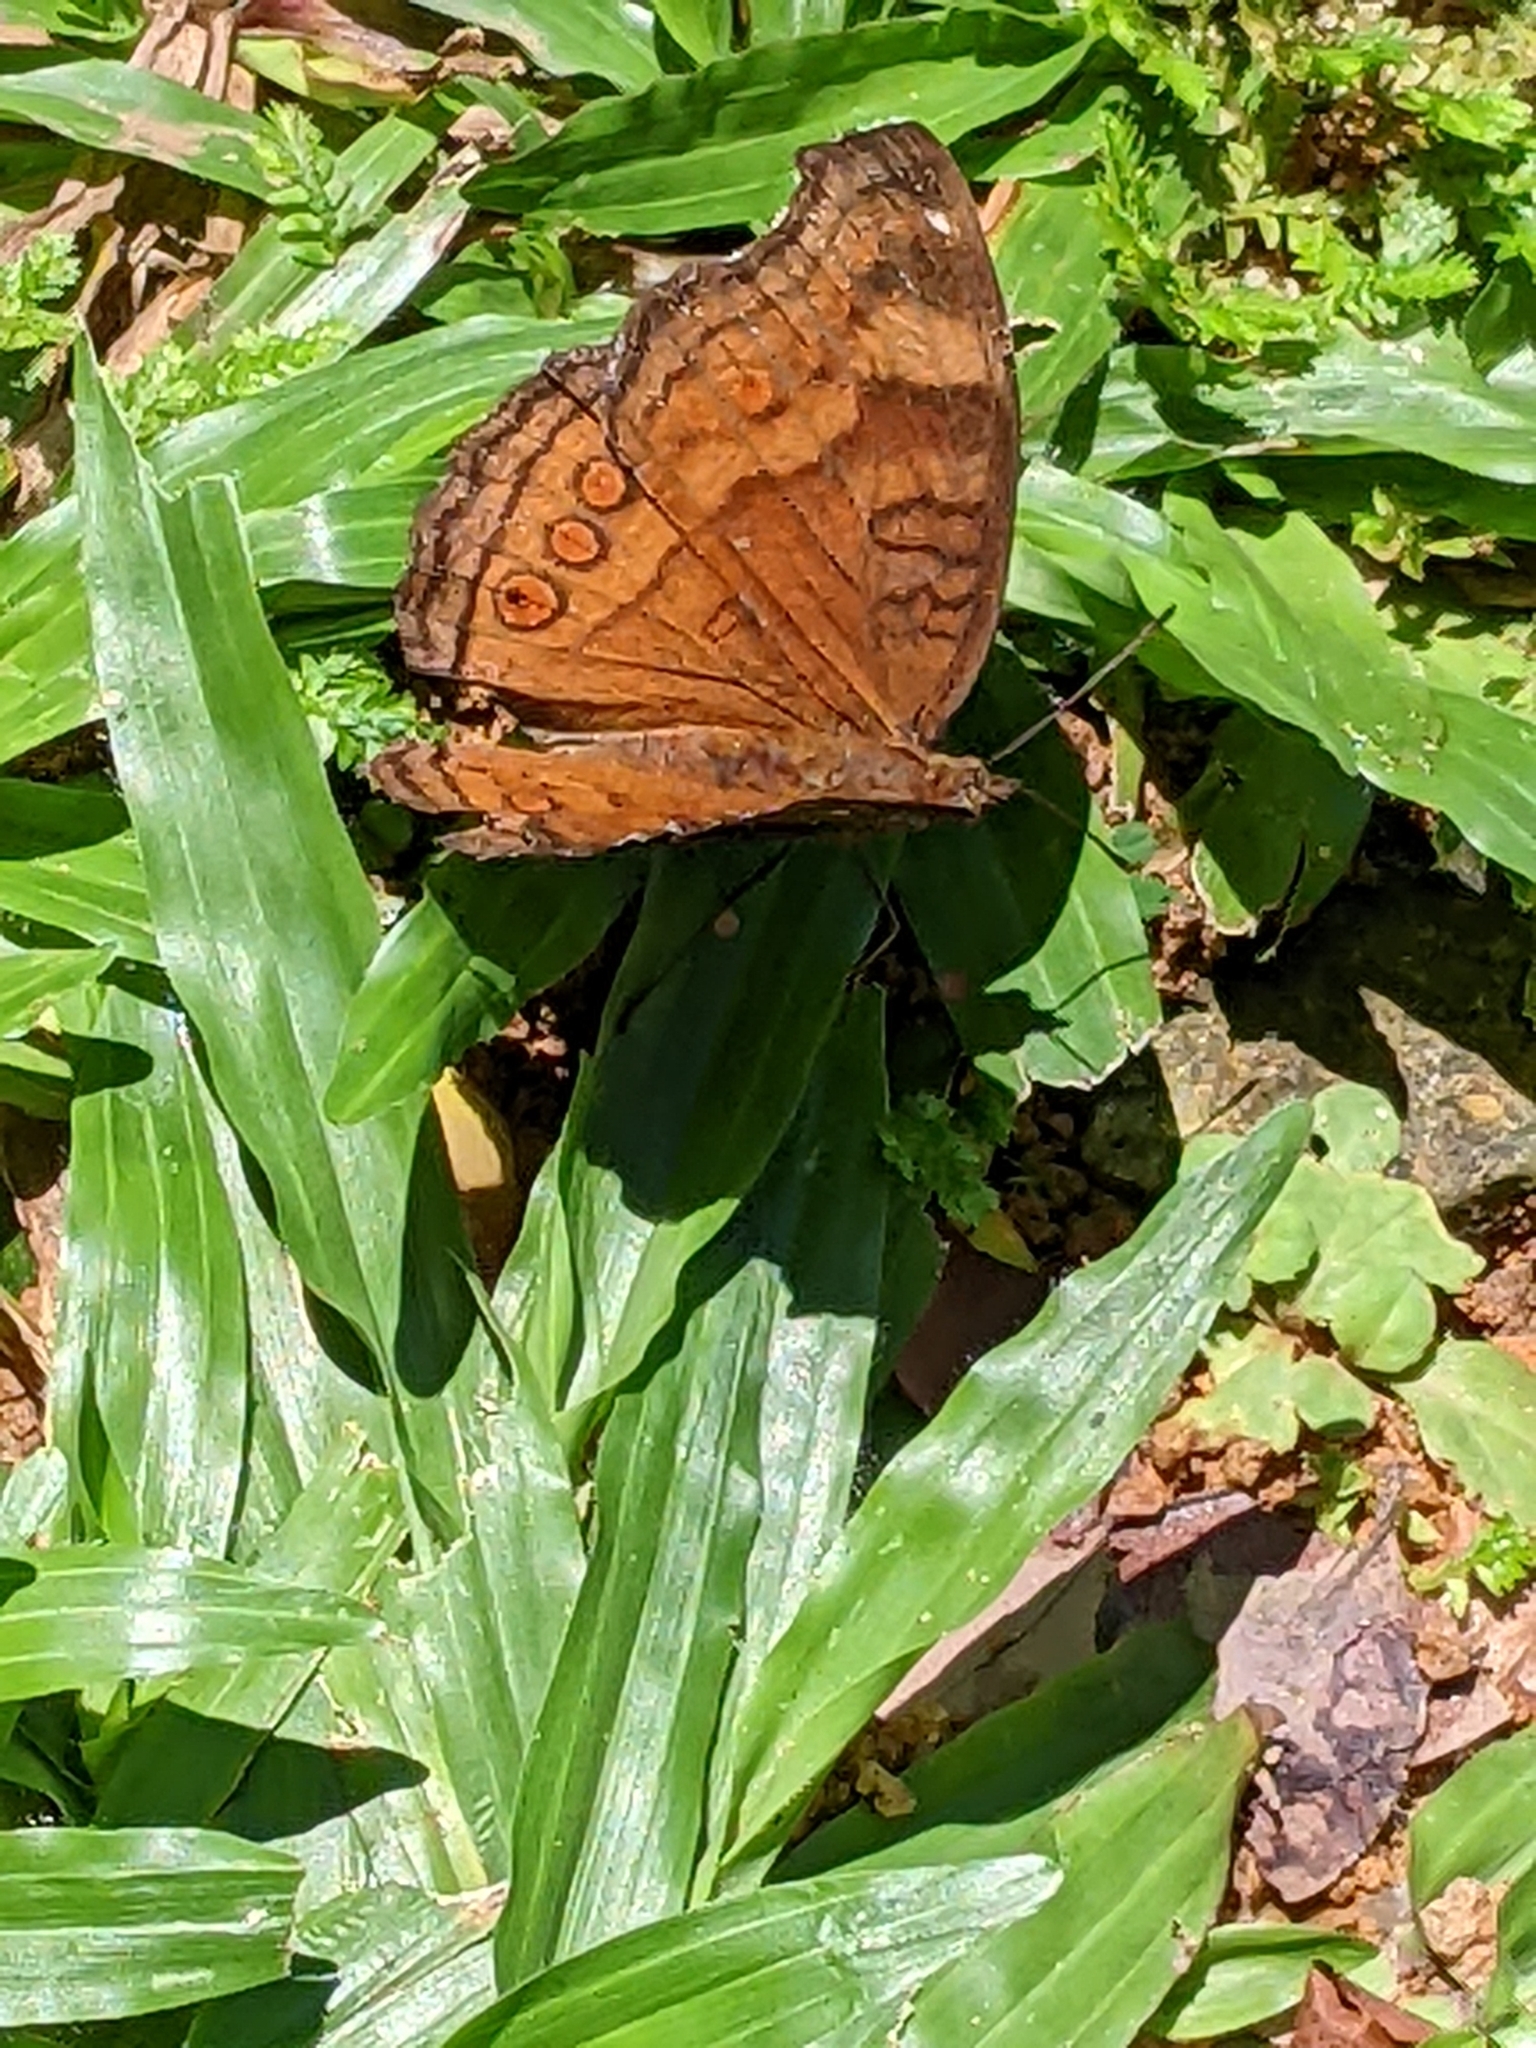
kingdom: Animalia
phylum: Arthropoda
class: Insecta
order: Lepidoptera
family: Nymphalidae
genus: Junonia
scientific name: Junonia hedonia
